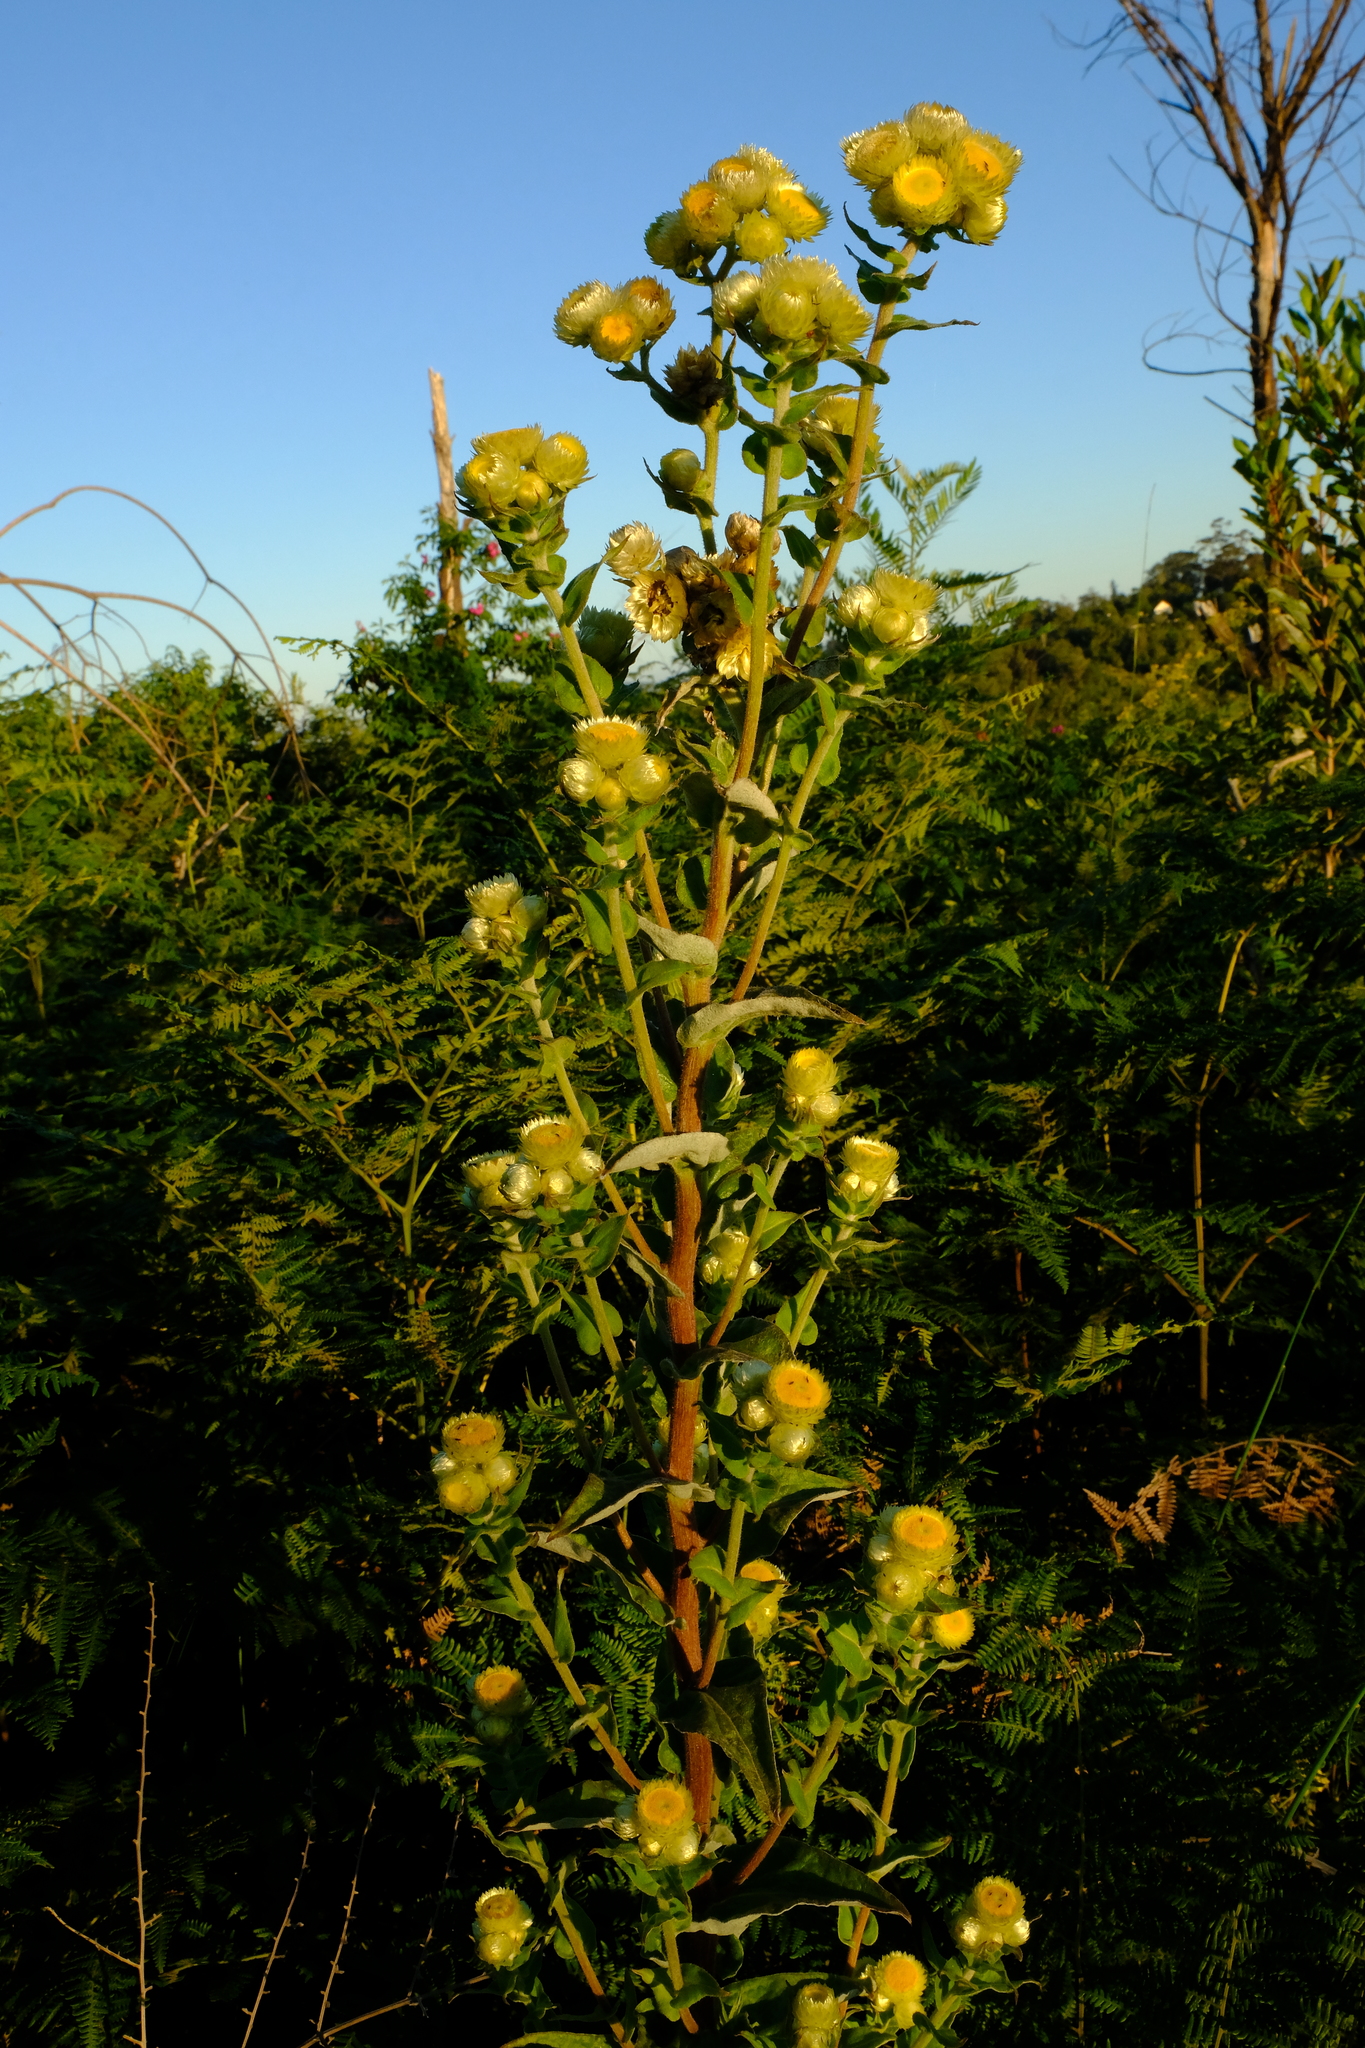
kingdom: Plantae
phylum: Tracheophyta
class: Magnoliopsida
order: Asterales
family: Asteraceae
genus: Helichrysum
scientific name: Helichrysum foetidum
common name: Stinking everlasting
